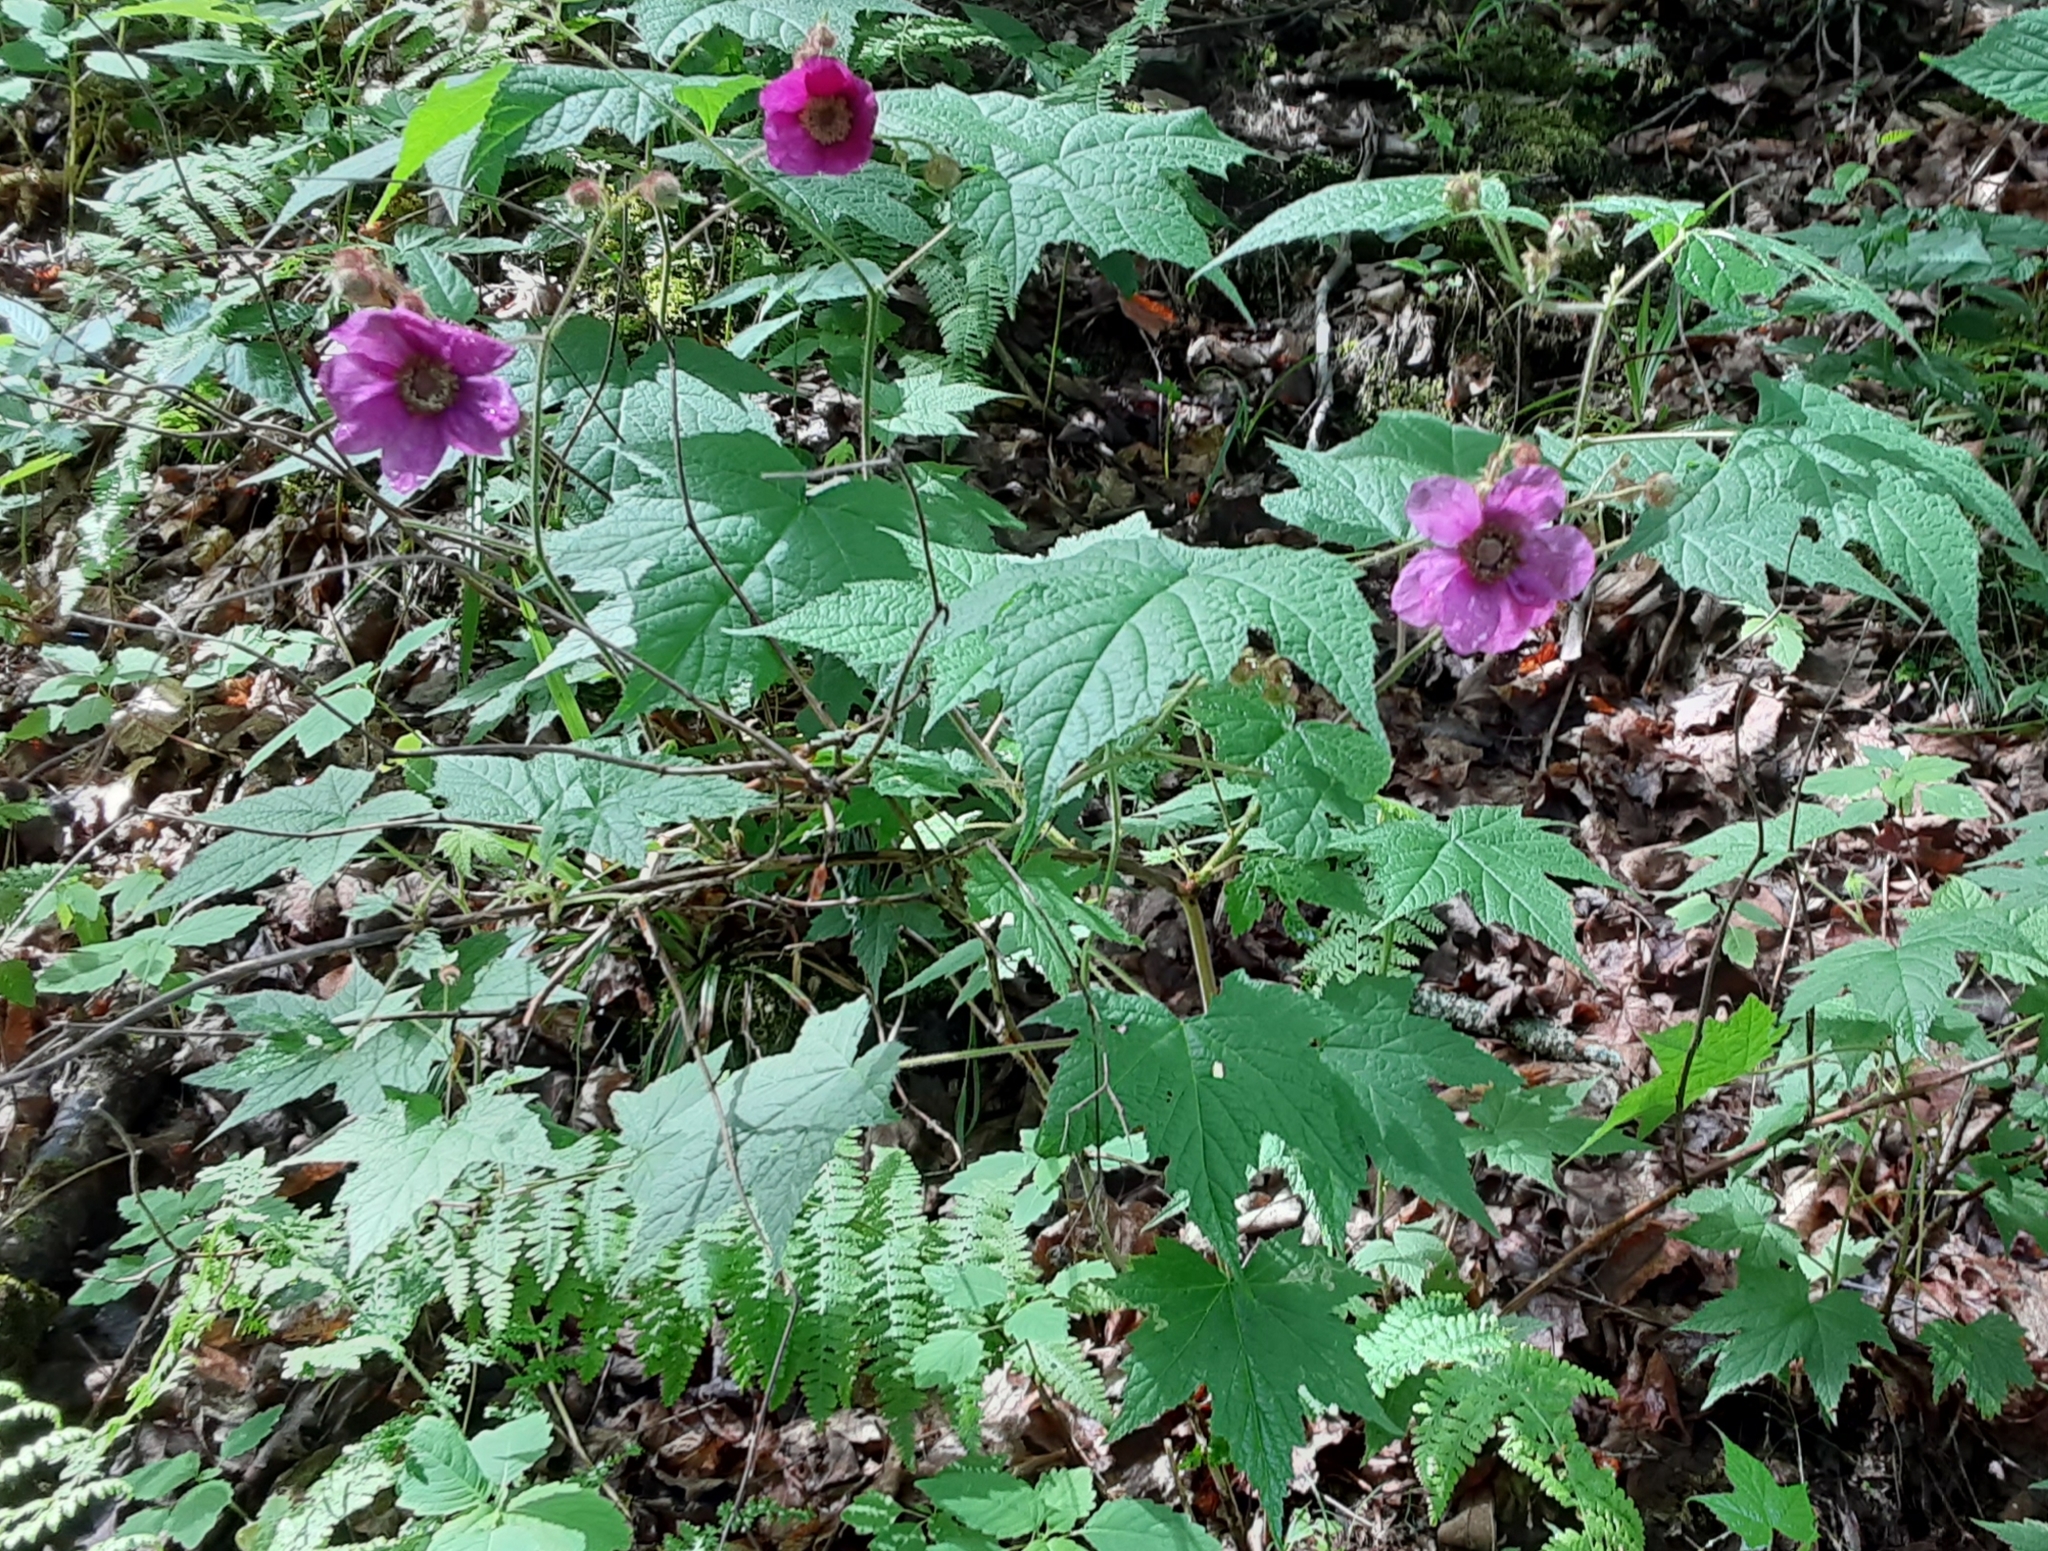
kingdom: Plantae
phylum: Tracheophyta
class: Magnoliopsida
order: Rosales
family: Rosaceae
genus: Rubus
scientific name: Rubus odoratus
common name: Purple-flowered raspberry
